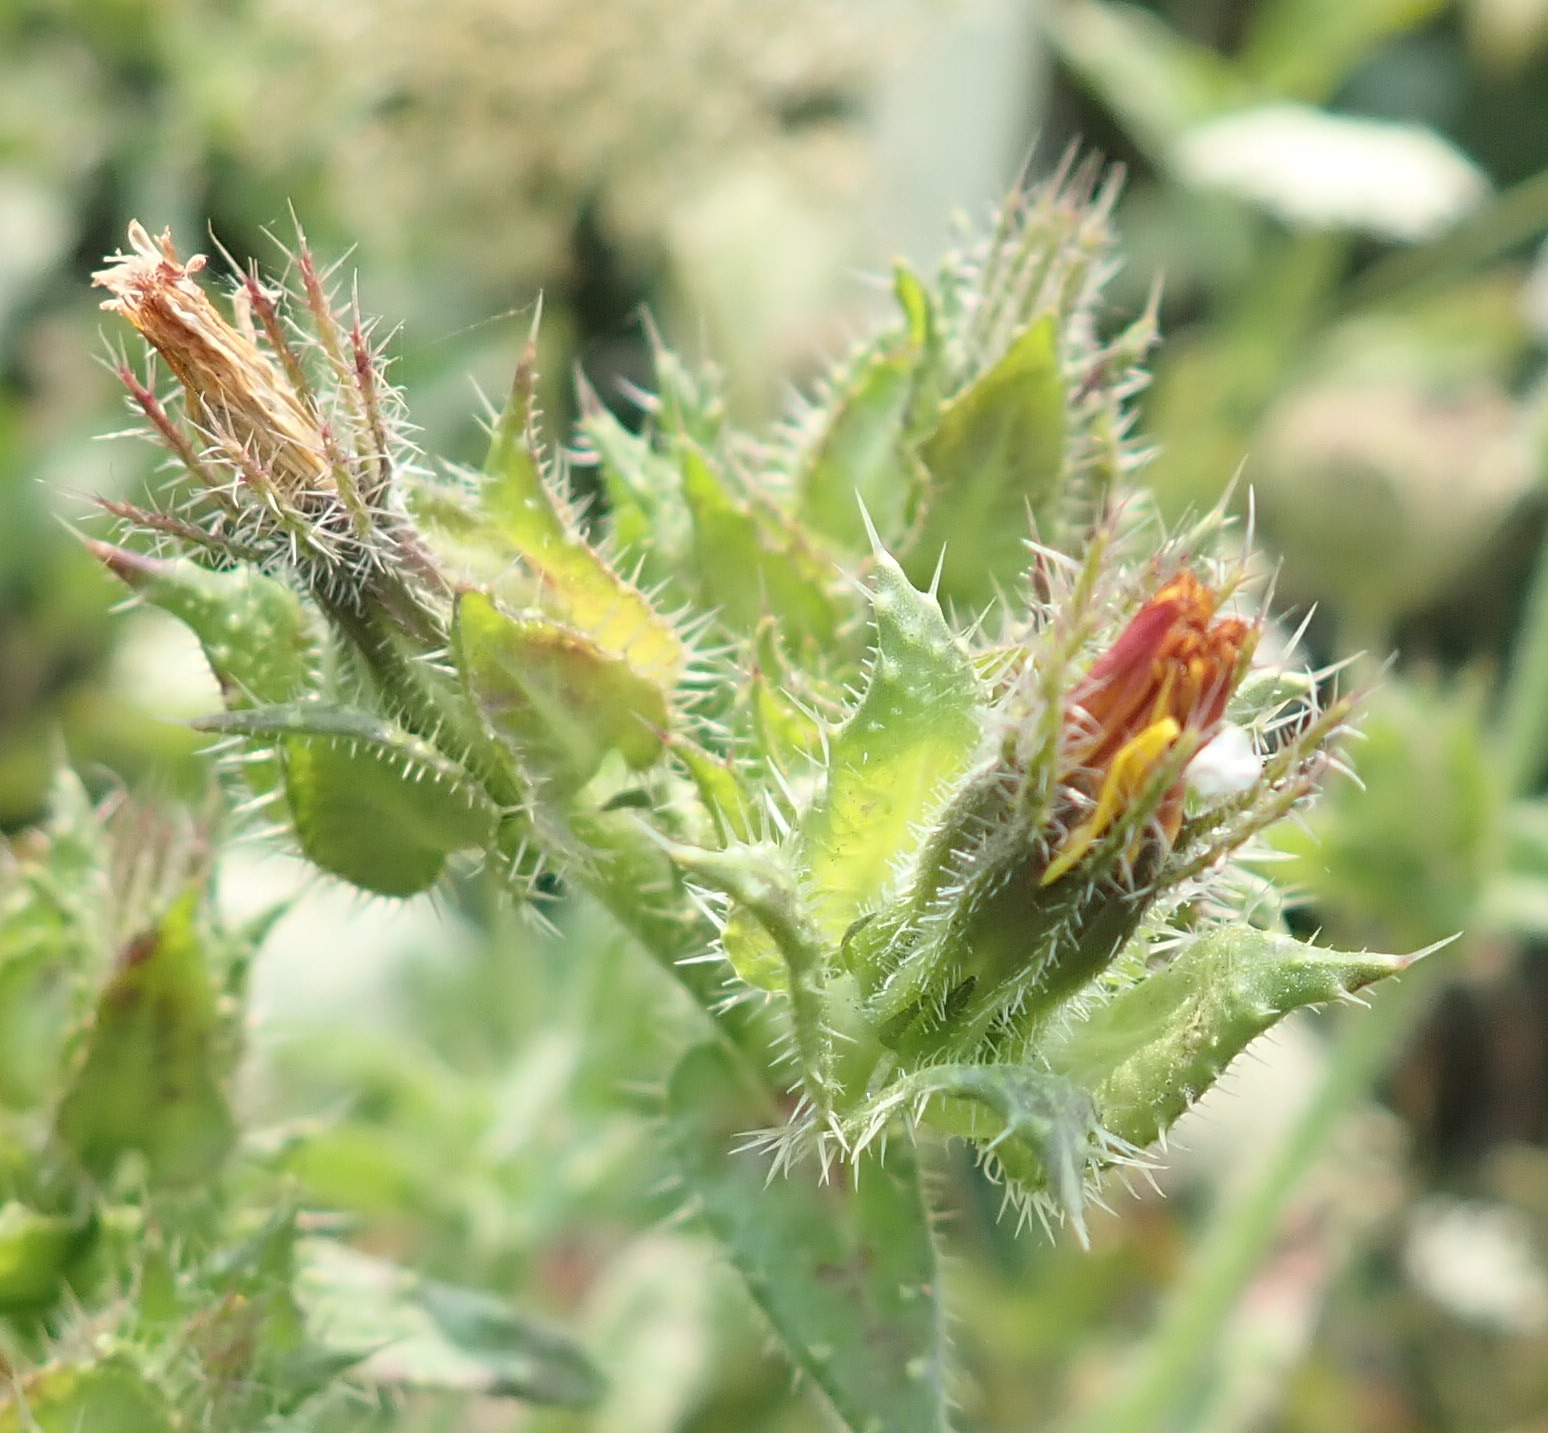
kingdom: Plantae
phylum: Tracheophyta
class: Magnoliopsida
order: Asterales
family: Asteraceae
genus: Helminthotheca
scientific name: Helminthotheca echioides
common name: Ox-tongue
